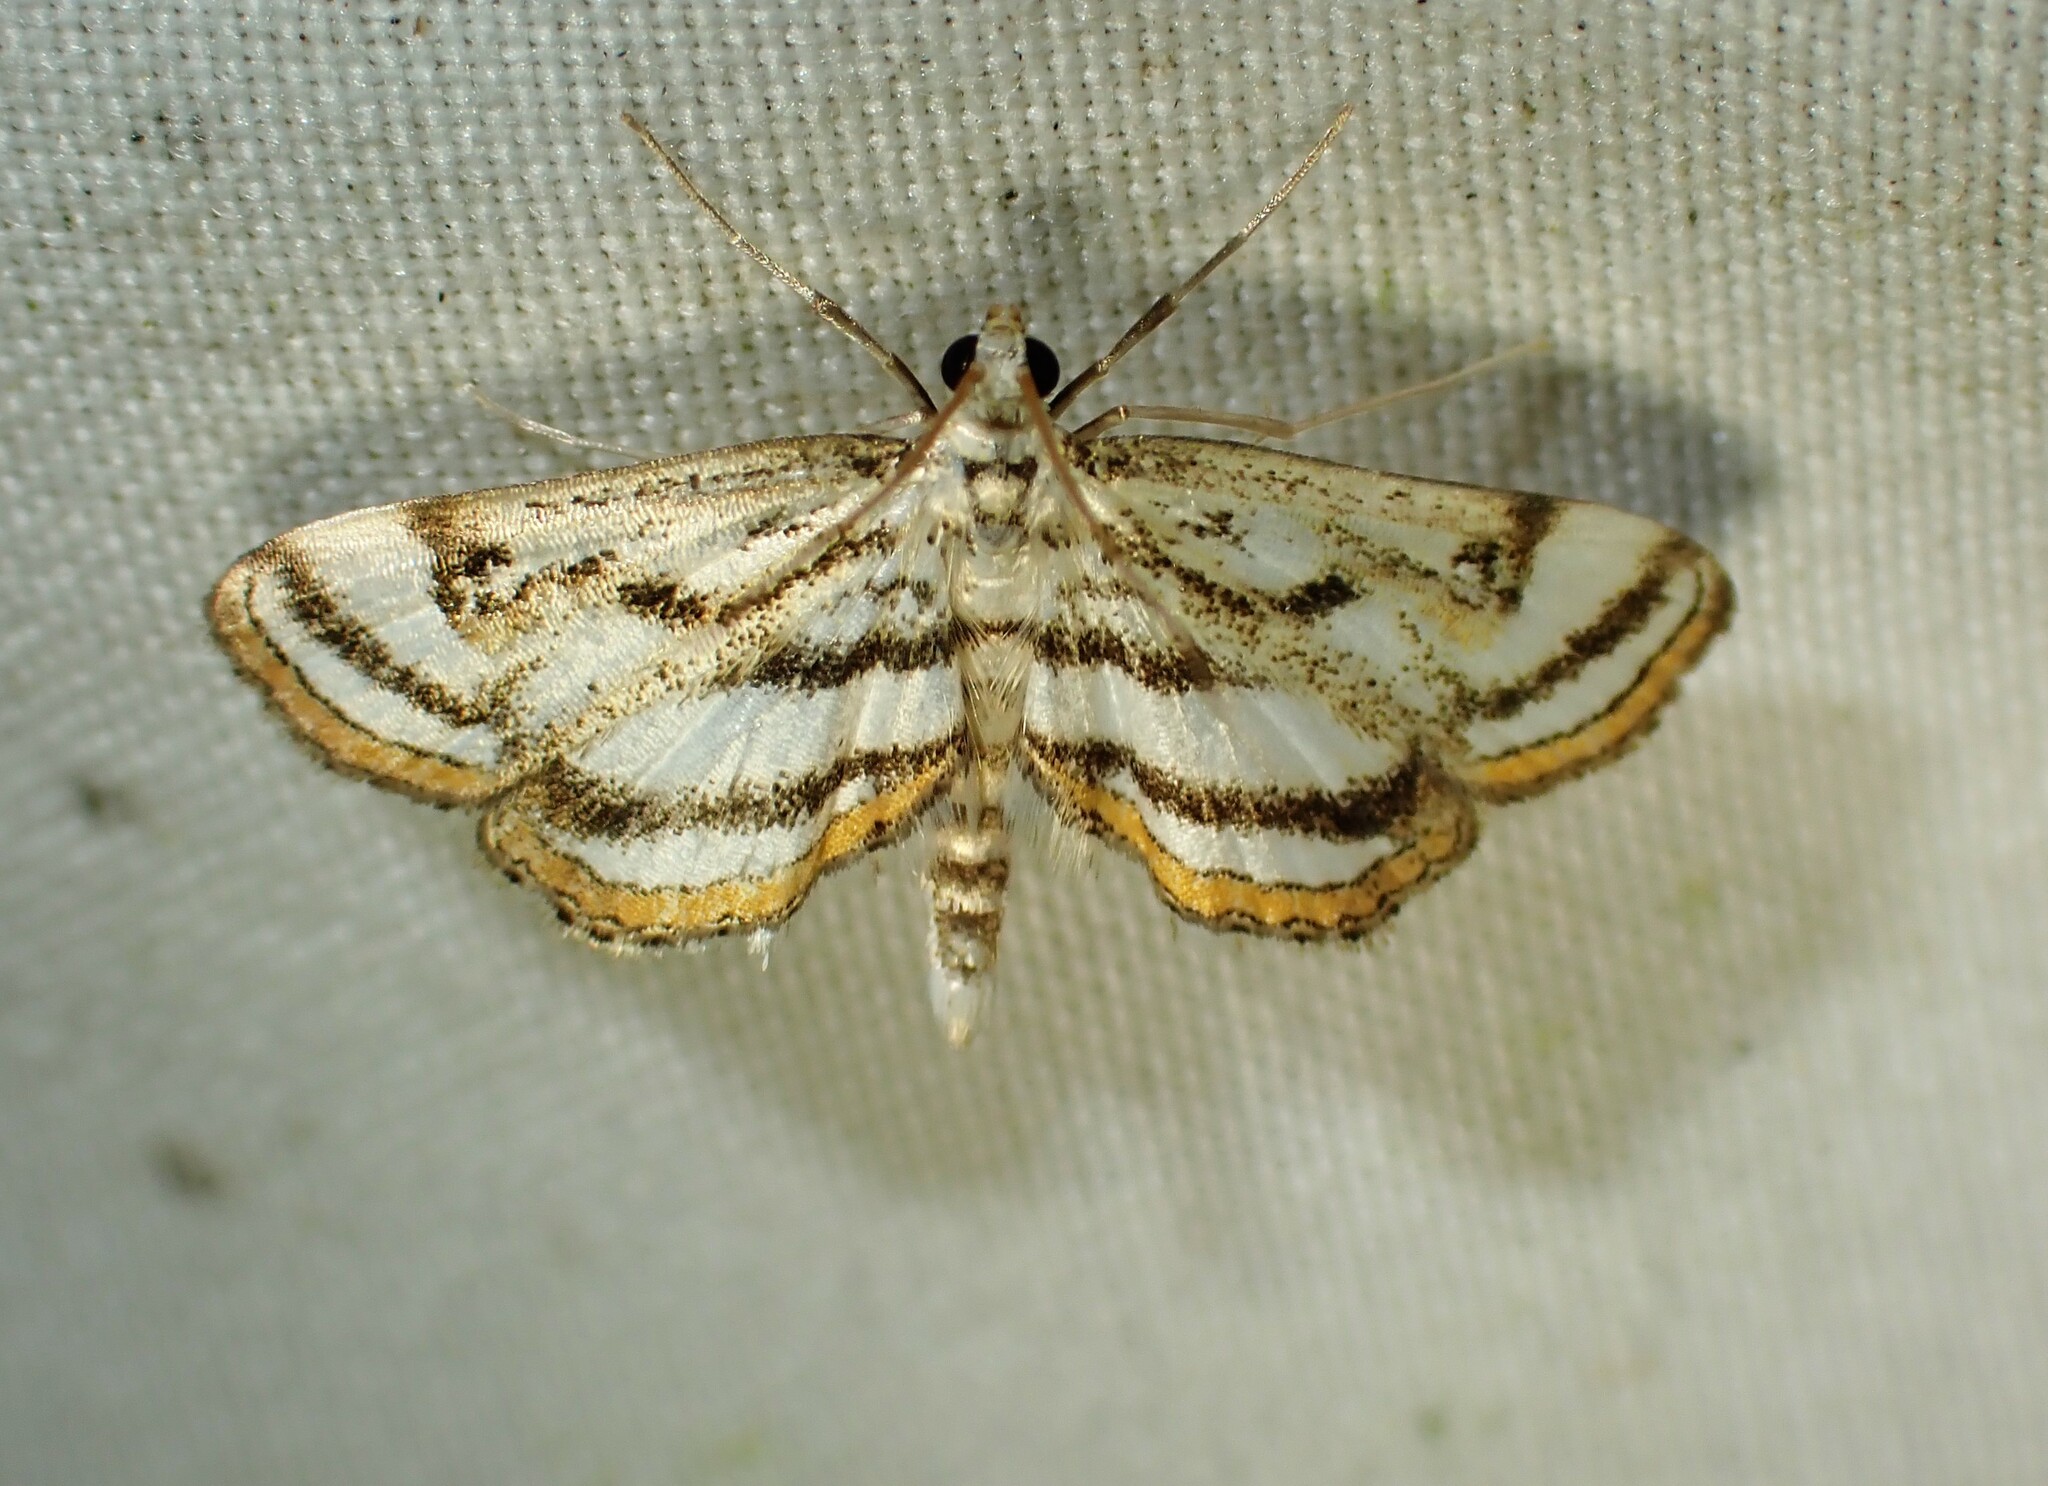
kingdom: Animalia
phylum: Arthropoda
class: Insecta
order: Lepidoptera
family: Crambidae
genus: Parapoynx
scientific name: Parapoynx badiusalis
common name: Chestnut-marked pondweed moth
